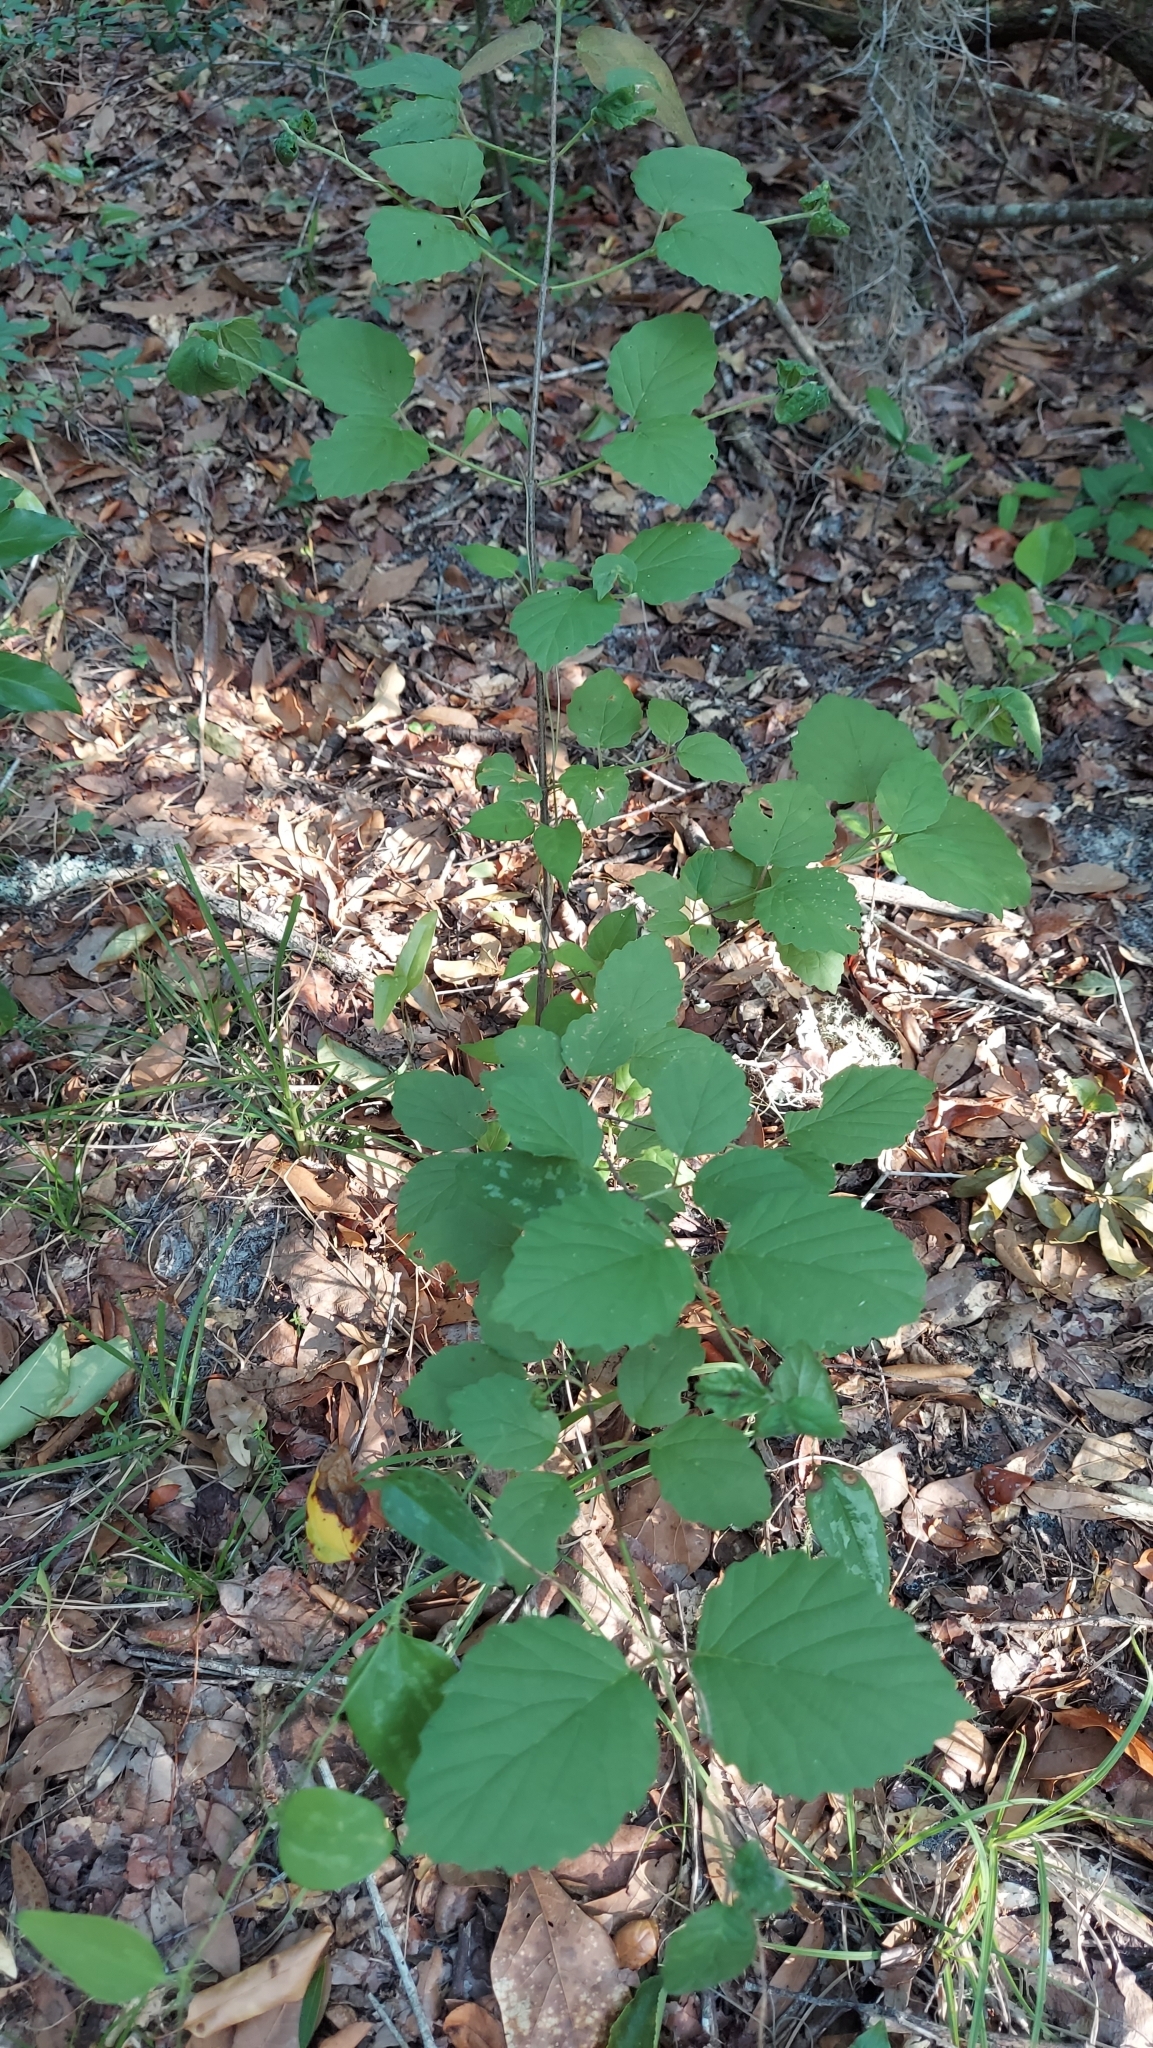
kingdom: Plantae
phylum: Tracheophyta
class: Magnoliopsida
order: Dipsacales
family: Viburnaceae
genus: Viburnum
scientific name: Viburnum dentatum
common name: Arrow-wood
